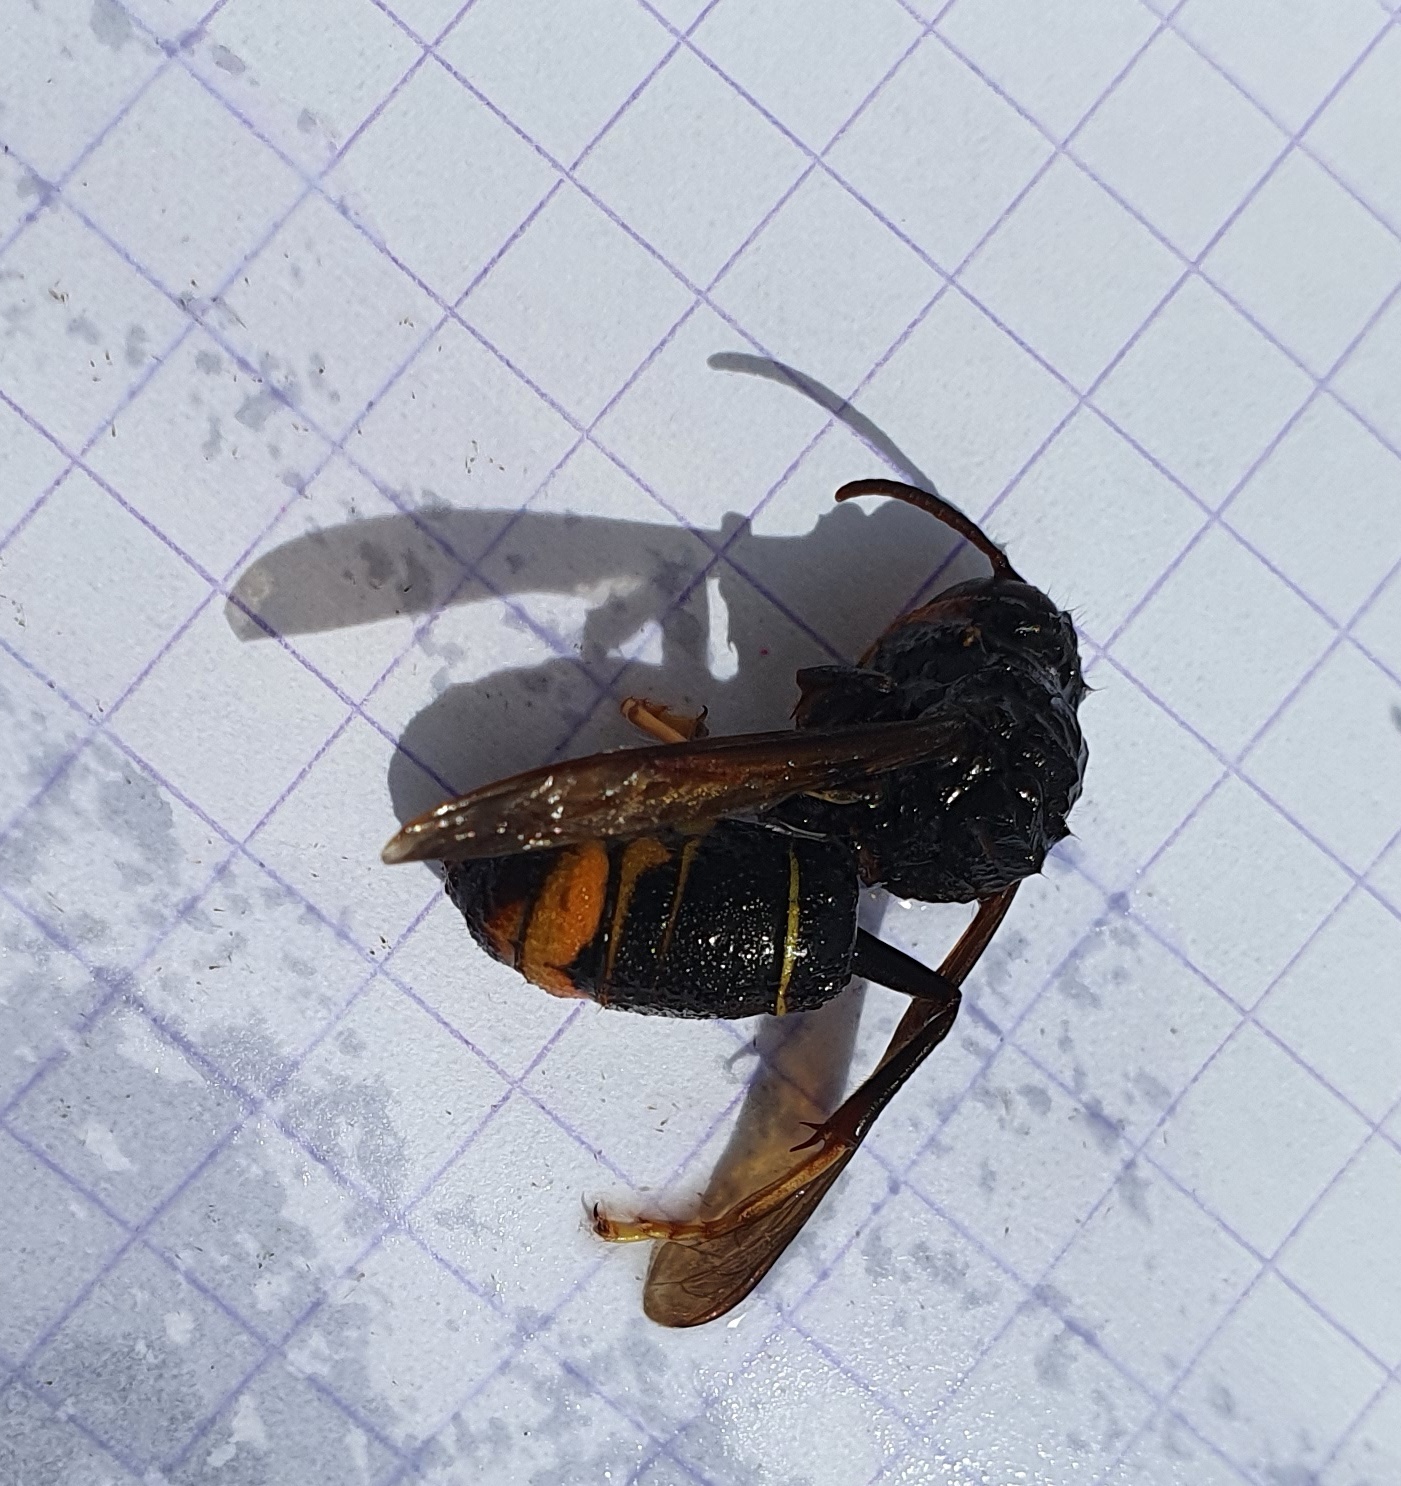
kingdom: Animalia
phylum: Arthropoda
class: Insecta
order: Hymenoptera
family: Vespidae
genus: Vespa
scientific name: Vespa velutina
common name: Asian hornet
